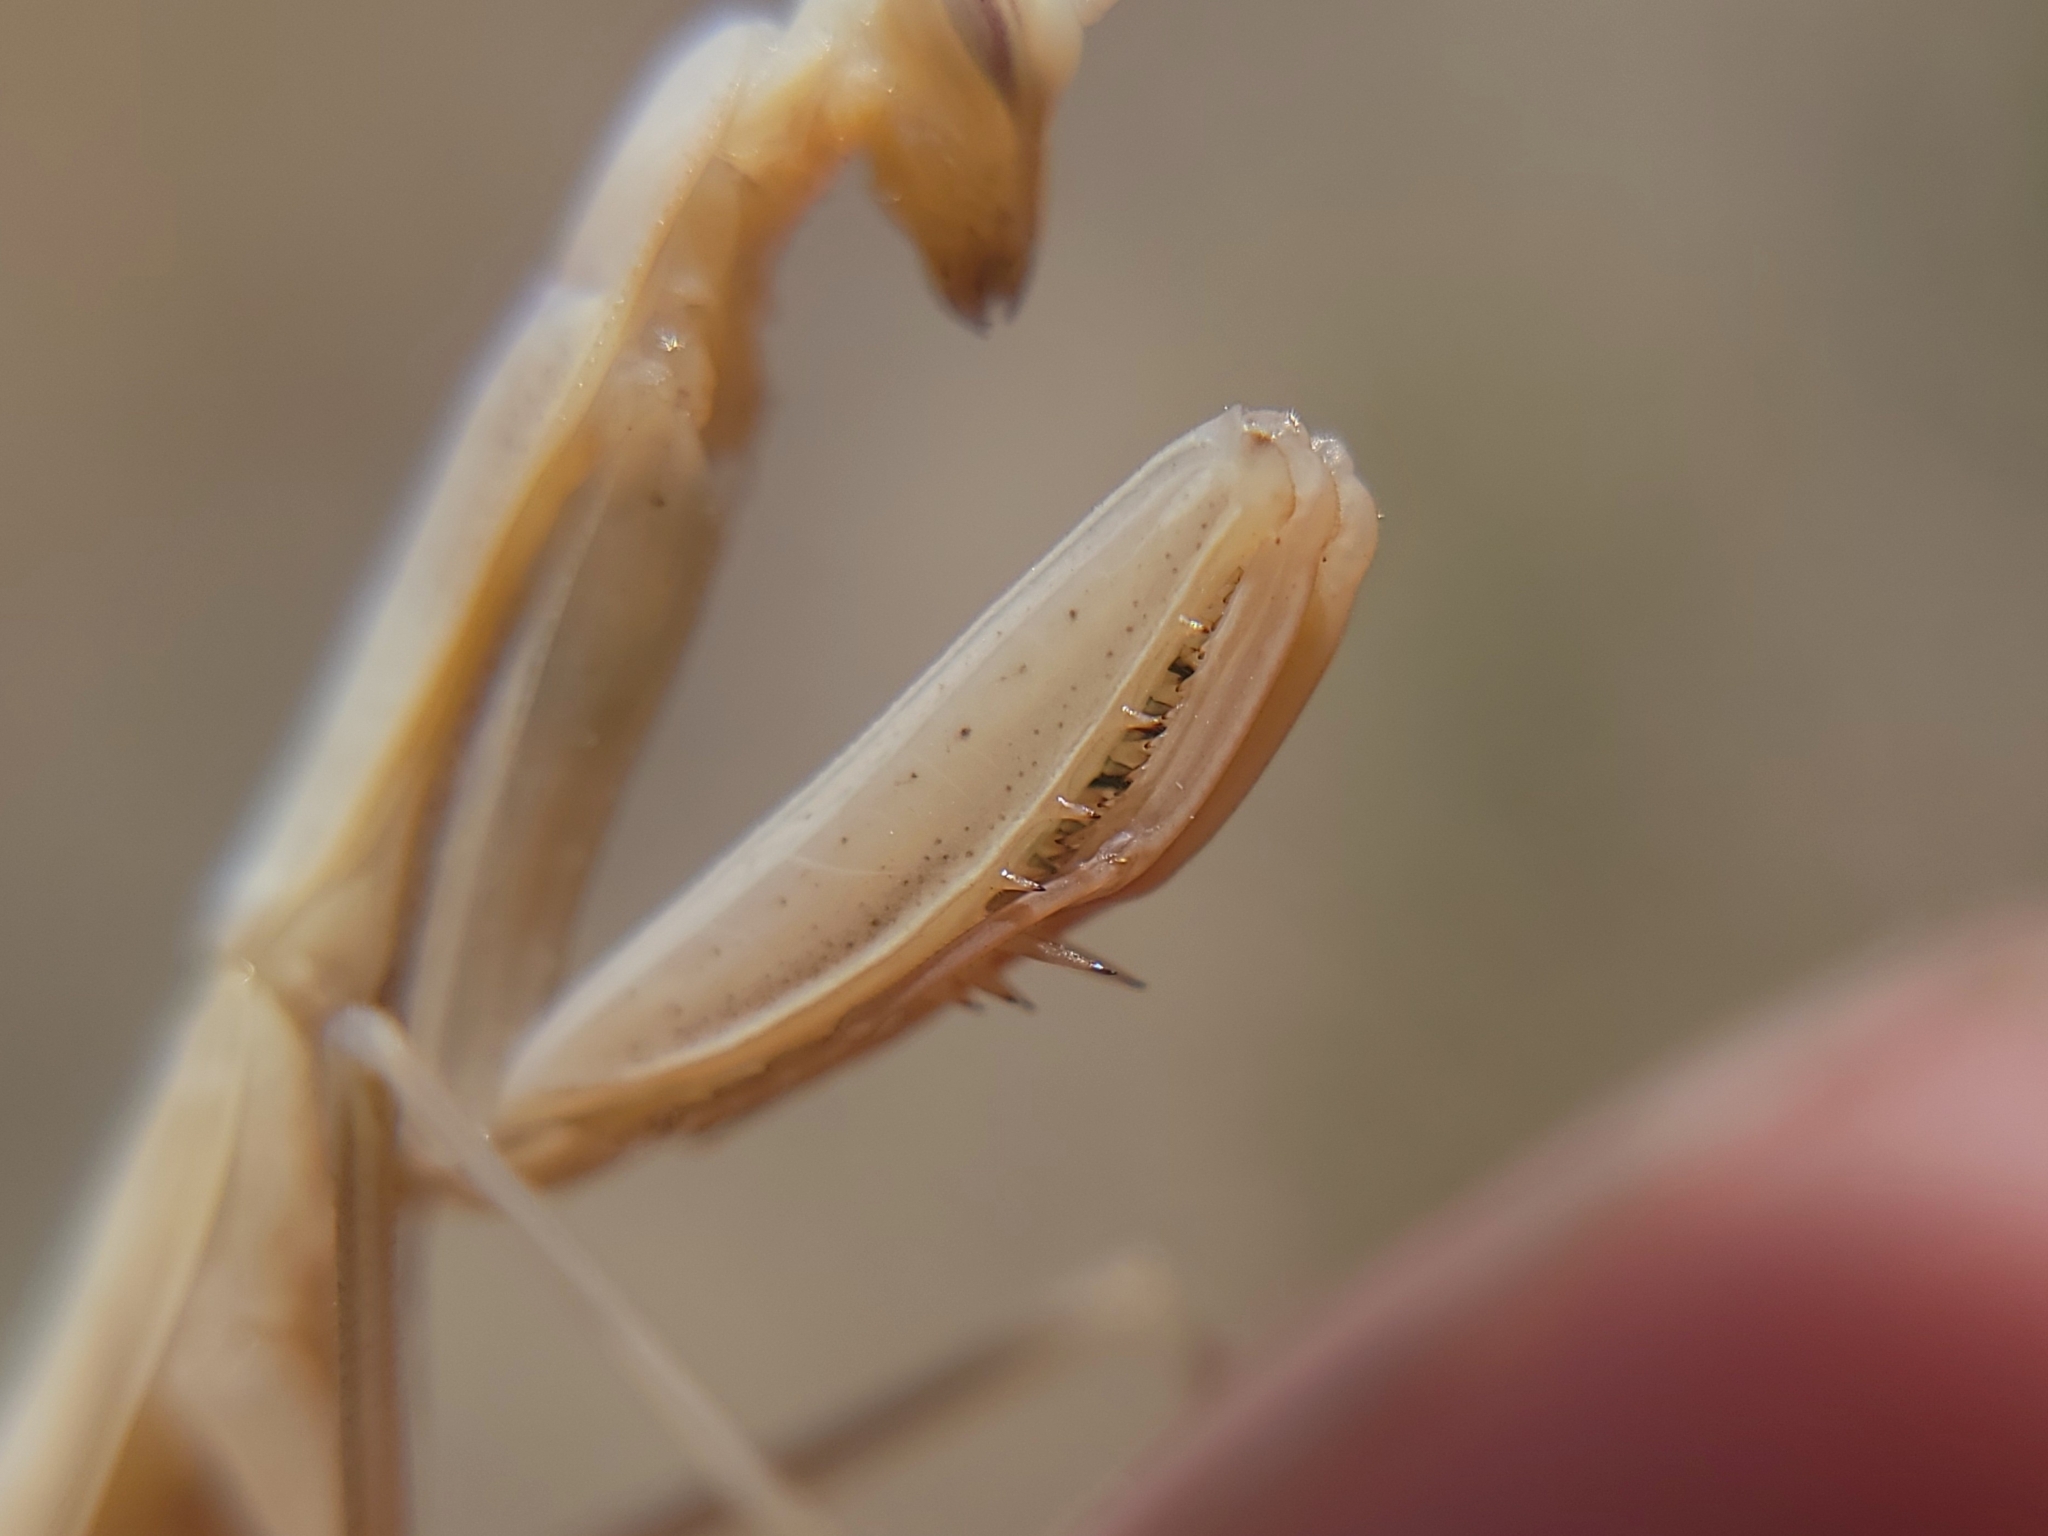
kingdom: Animalia
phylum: Arthropoda
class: Insecta
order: Mantodea
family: Mantidae
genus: Mantis
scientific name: Mantis religiosa
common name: Praying mantis
